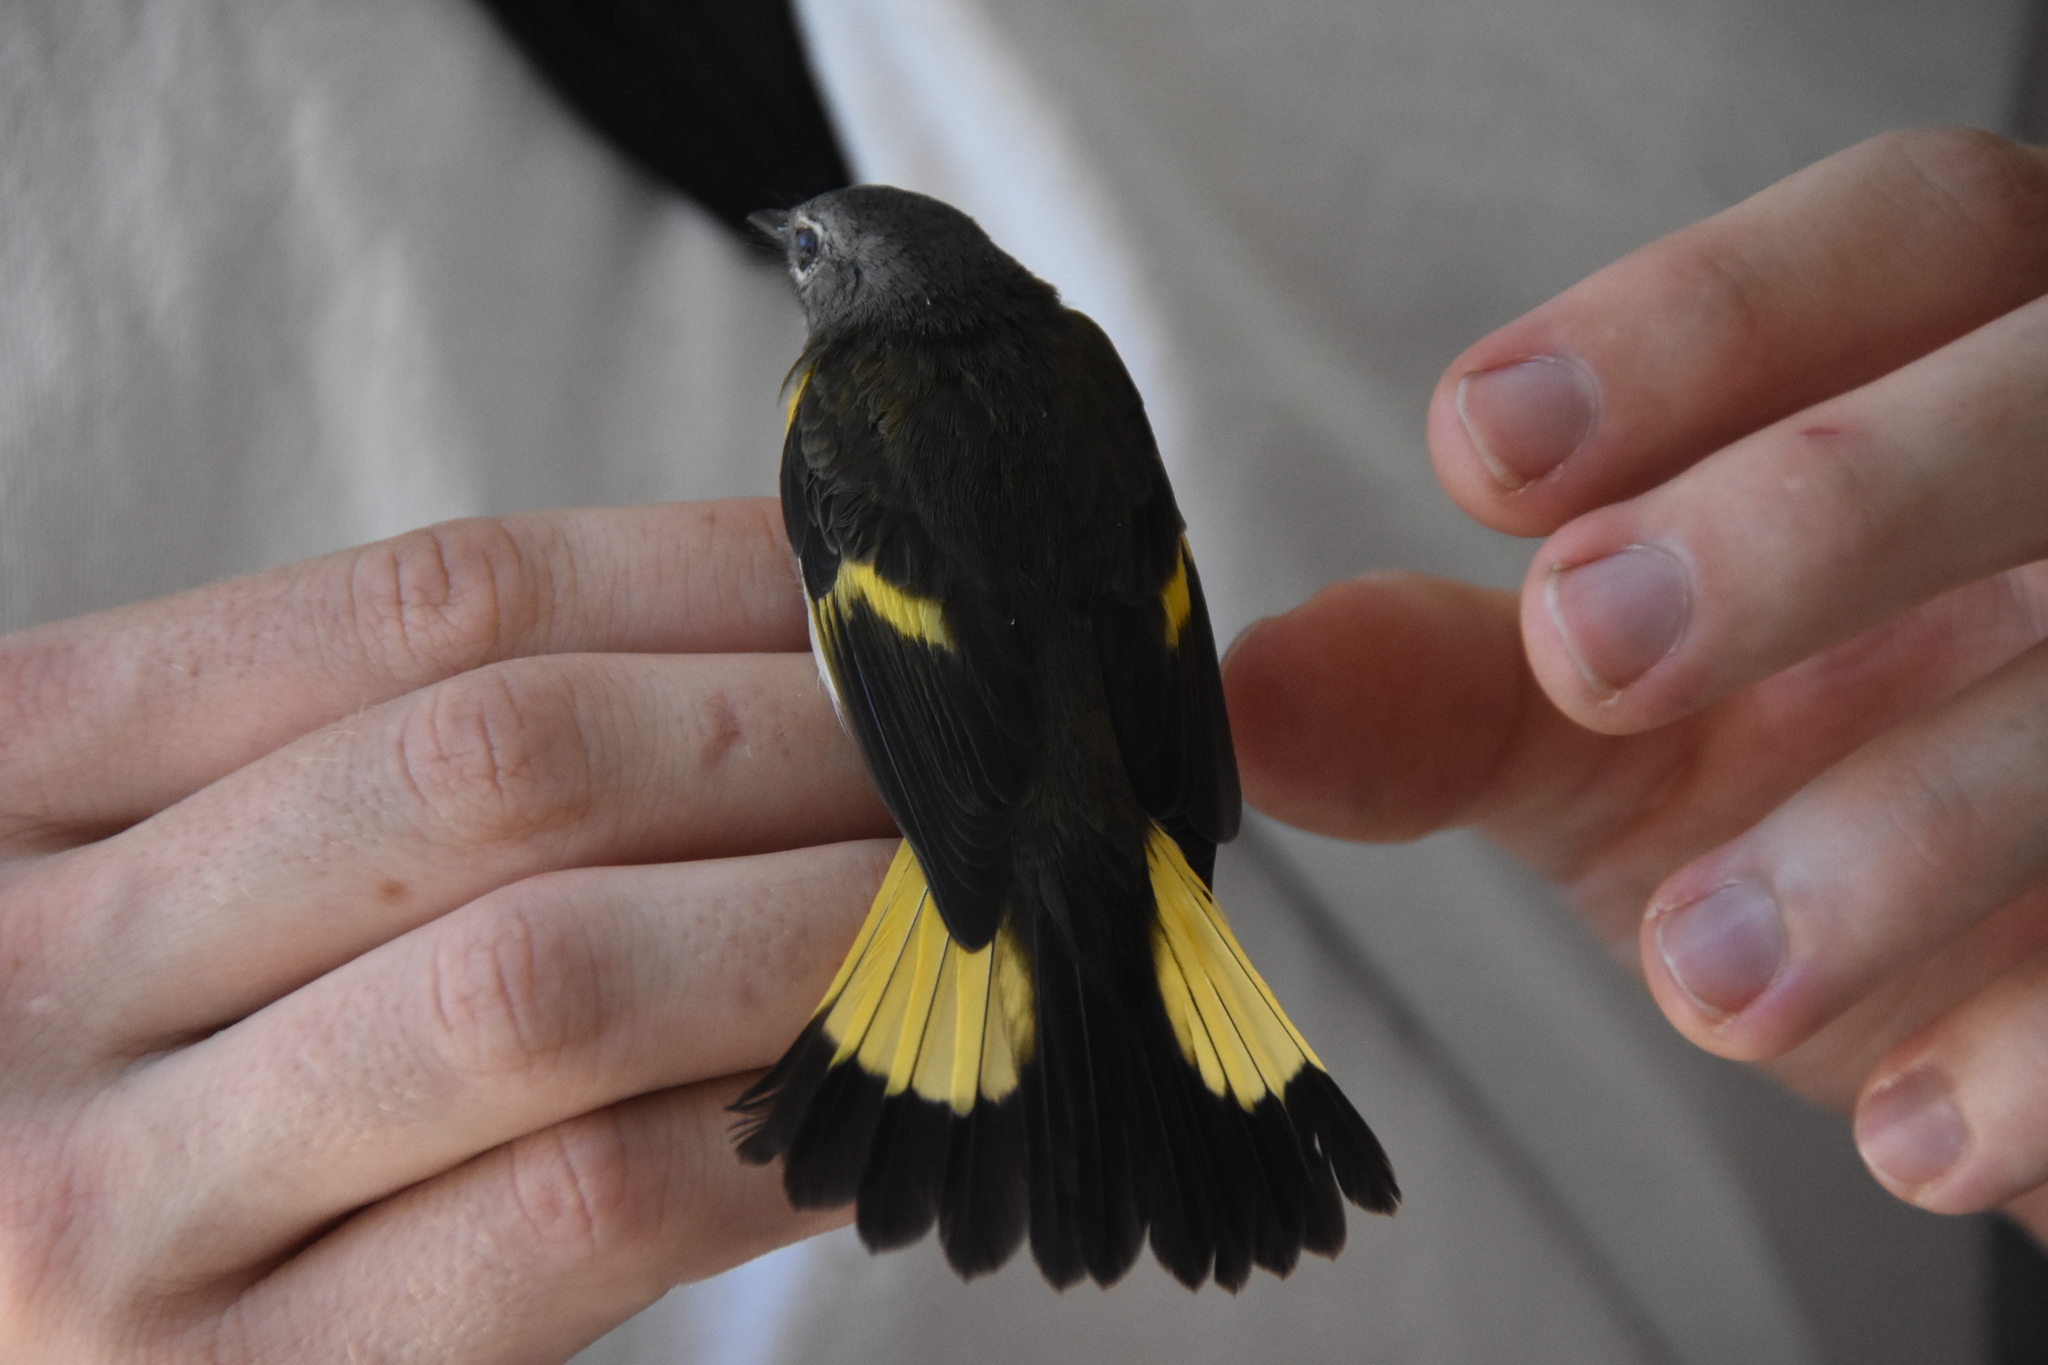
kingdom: Animalia
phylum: Chordata
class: Aves
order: Passeriformes
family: Parulidae
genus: Setophaga
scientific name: Setophaga ruticilla
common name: American redstart
